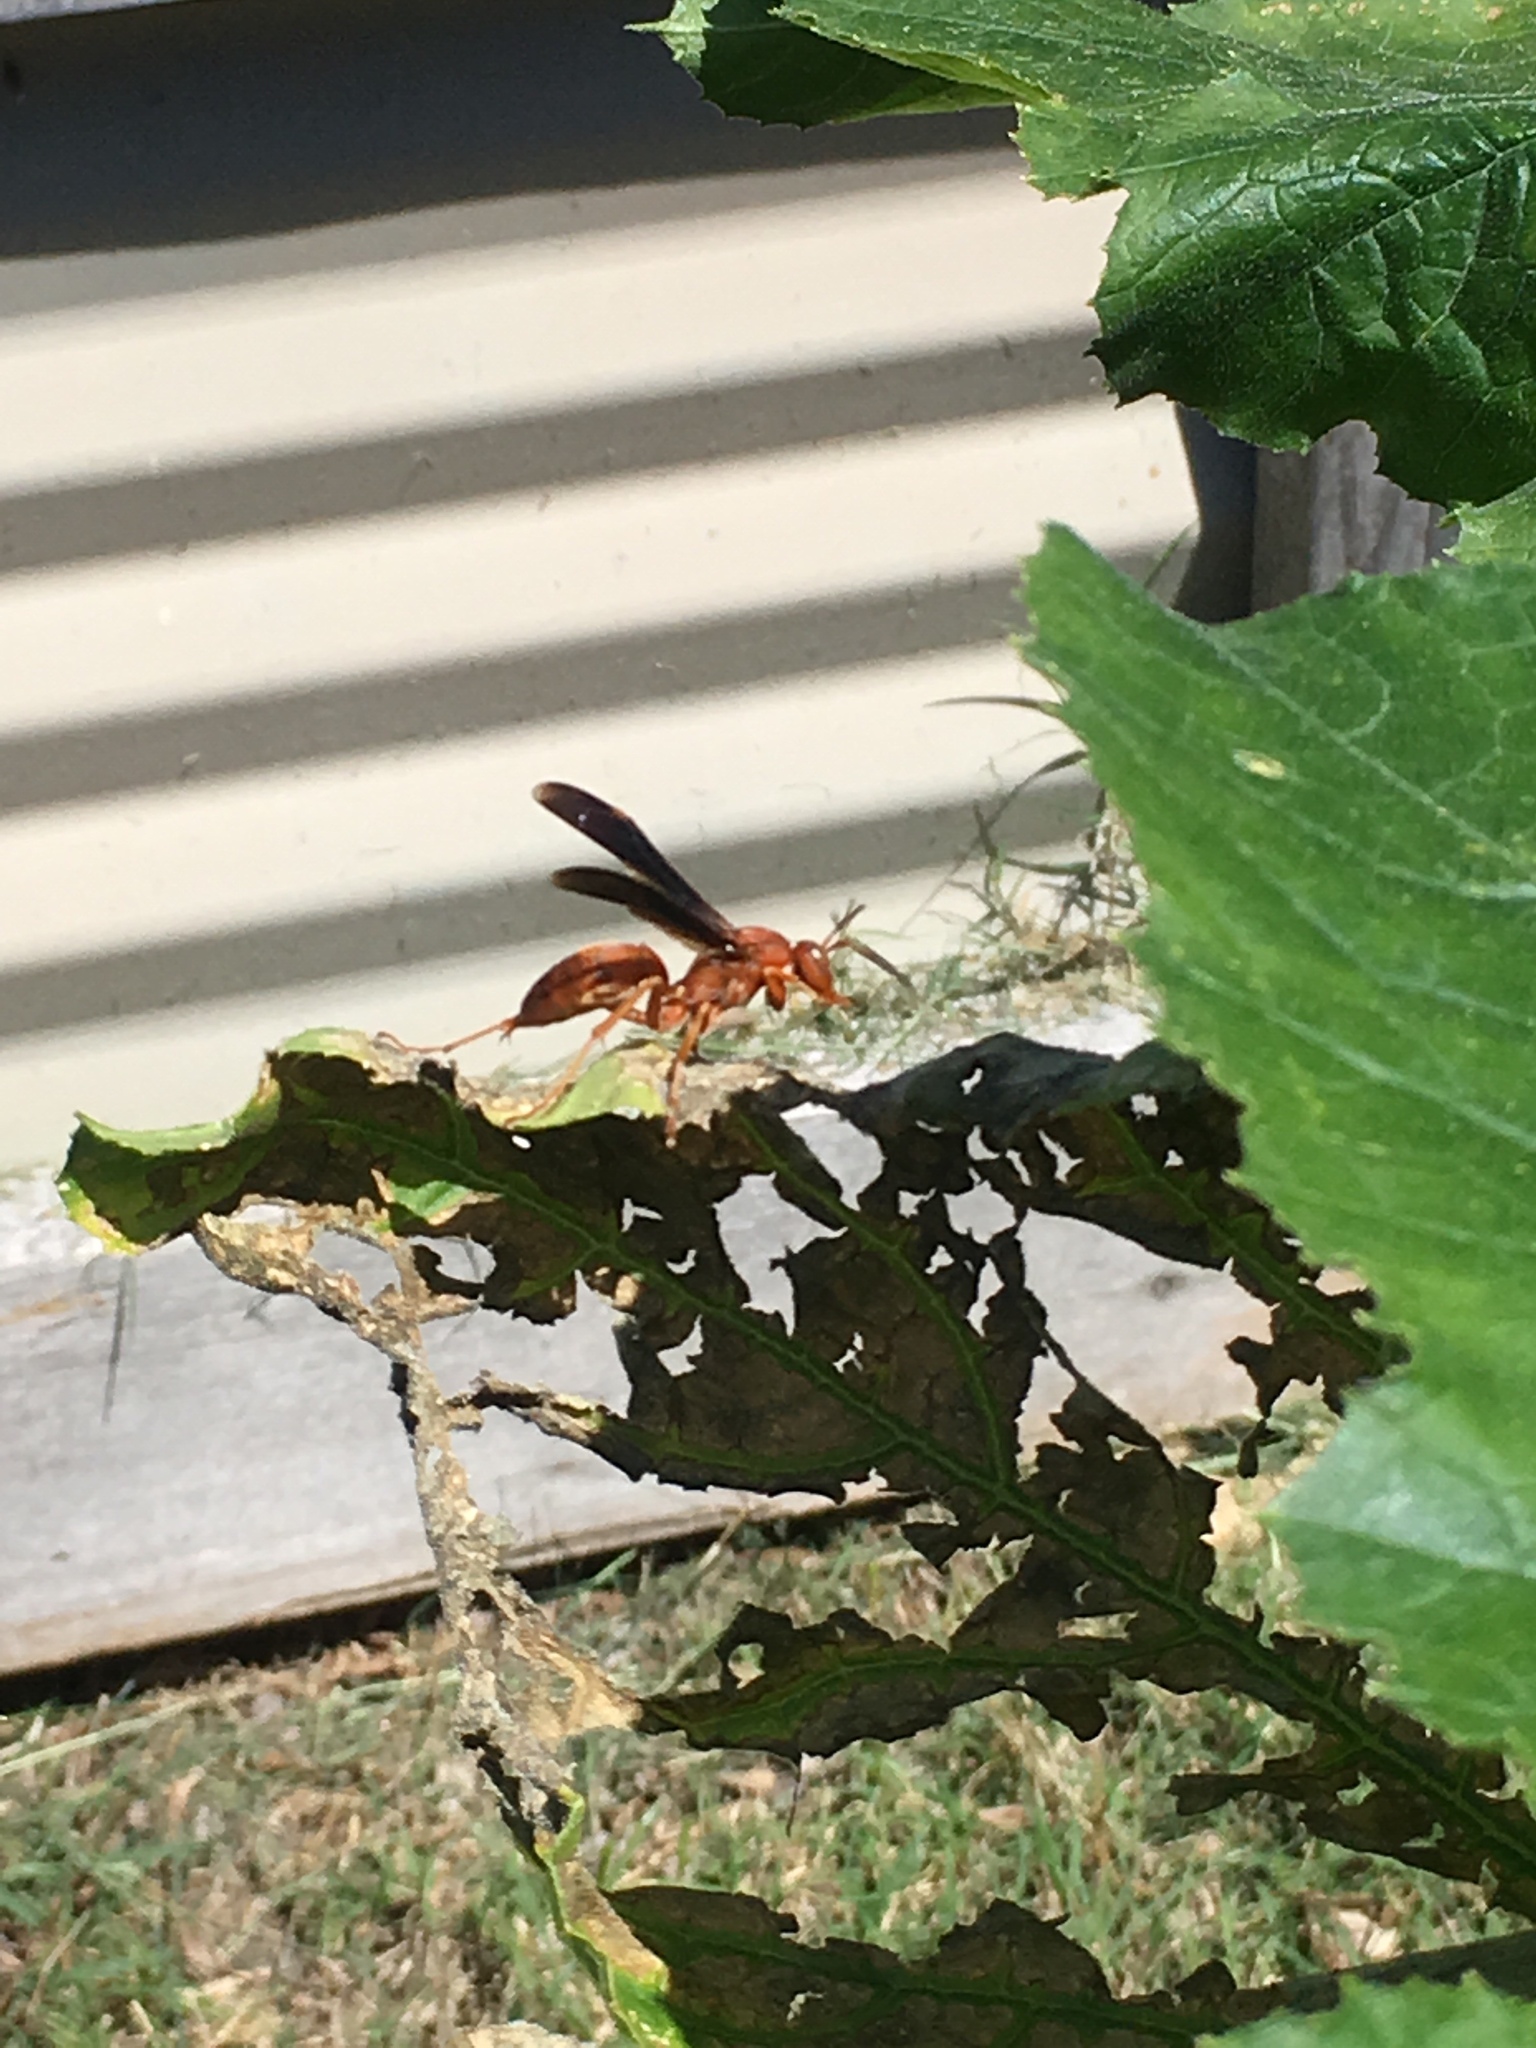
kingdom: Animalia
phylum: Arthropoda
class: Insecta
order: Hymenoptera
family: Vespidae
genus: Fuscopolistes
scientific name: Fuscopolistes
